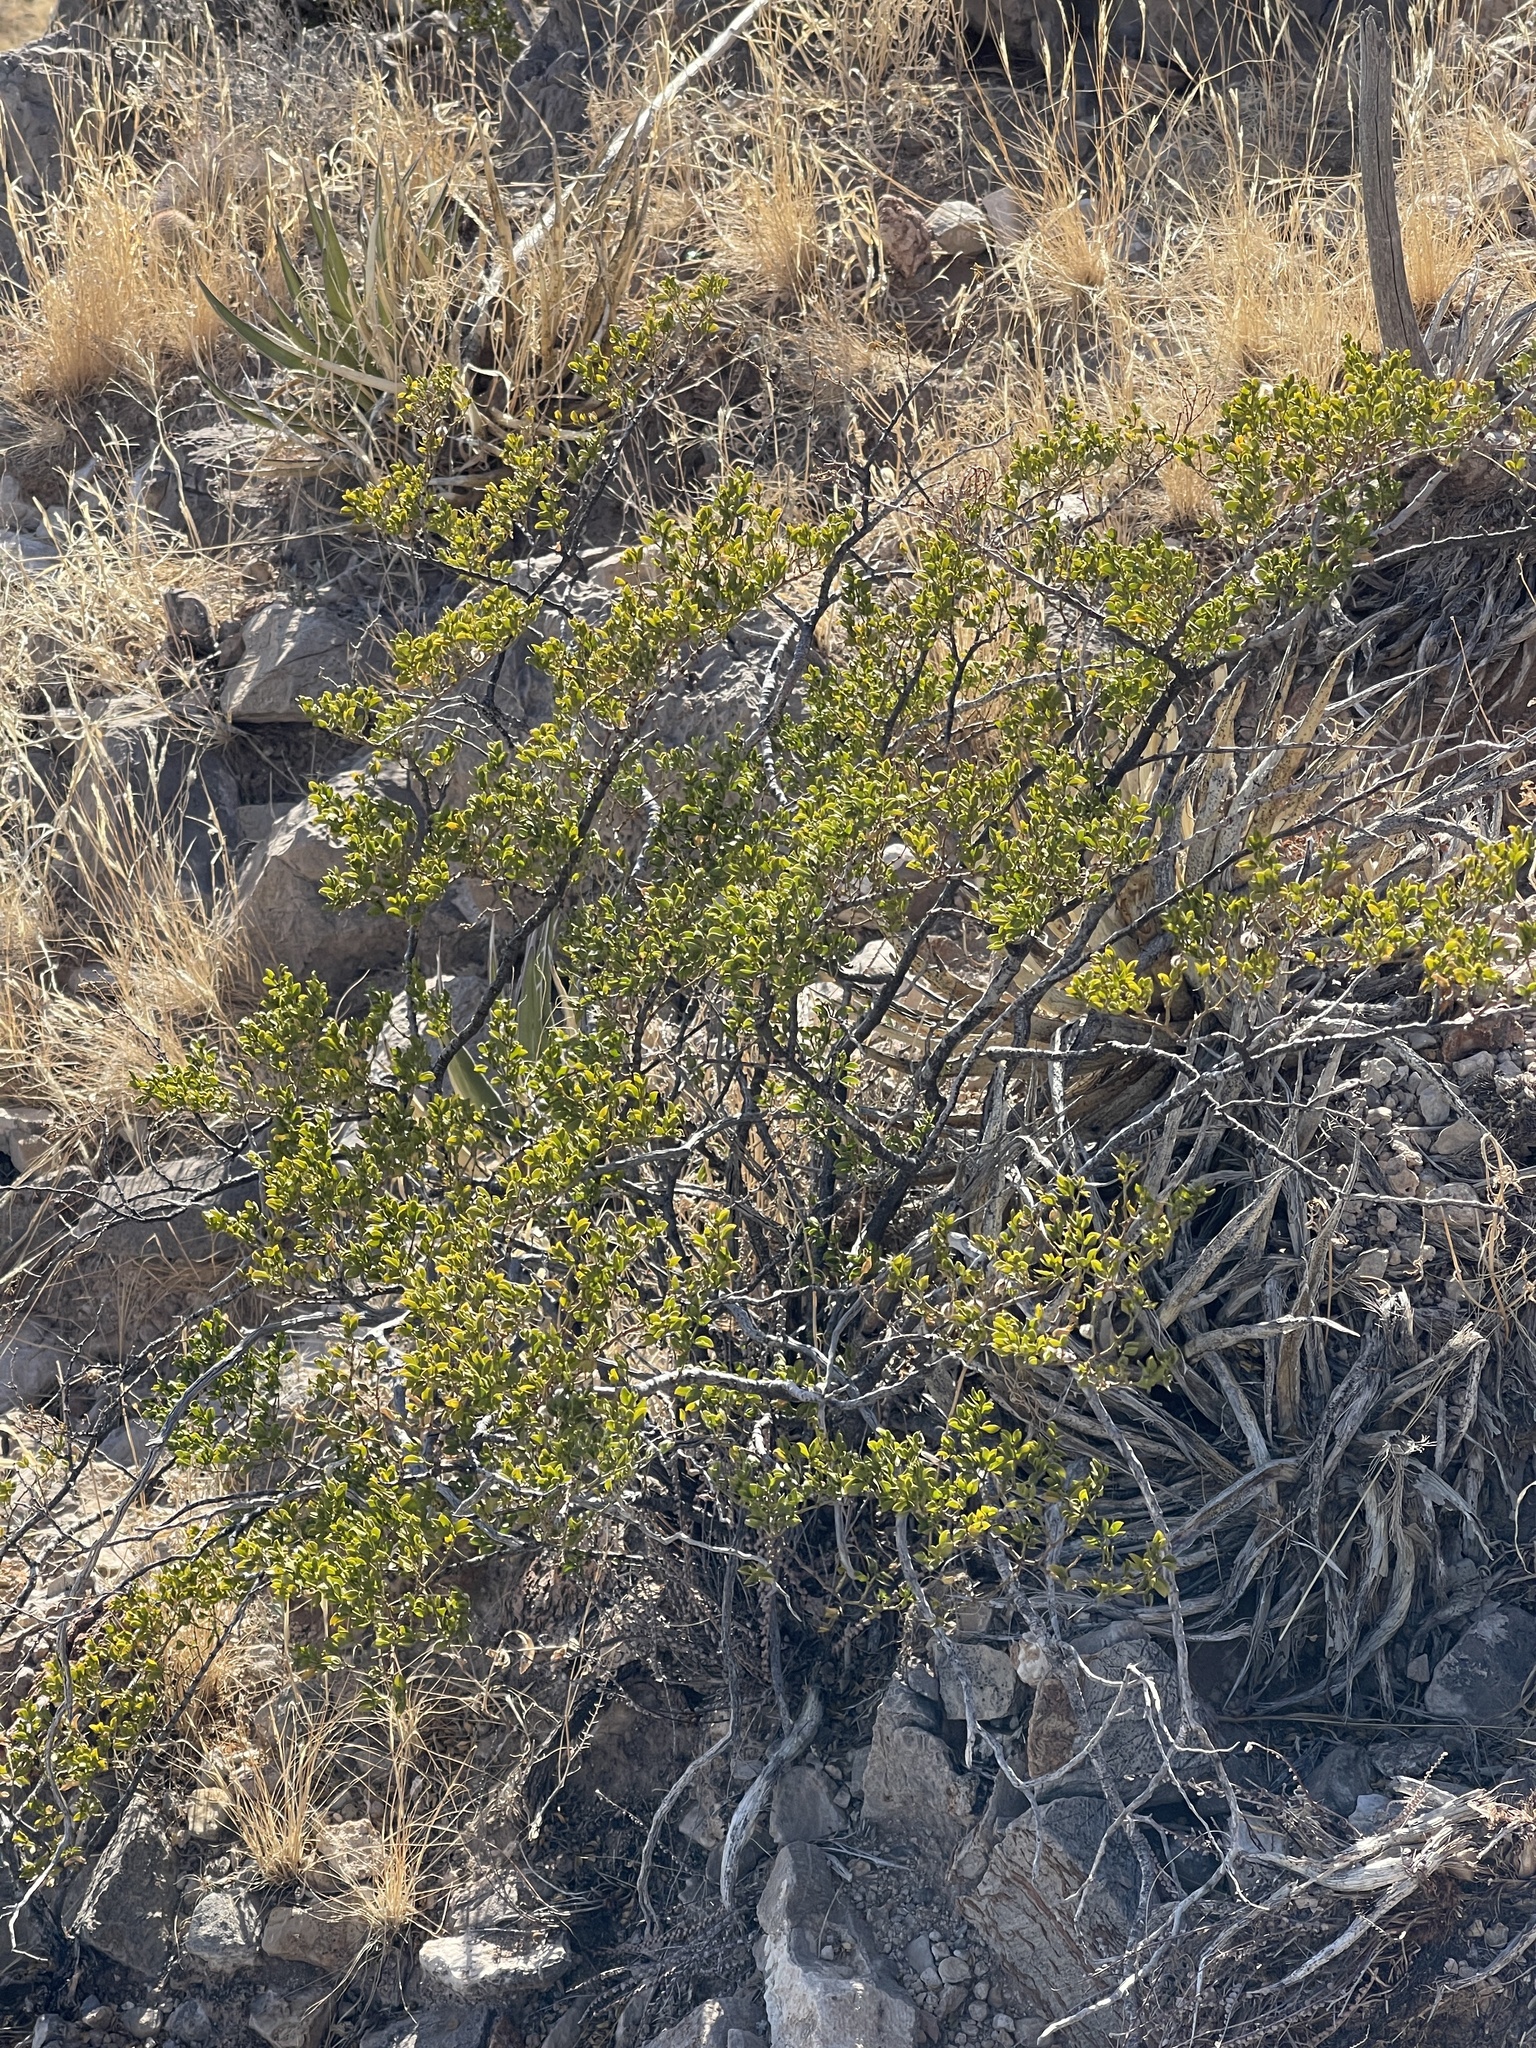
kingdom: Plantae
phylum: Tracheophyta
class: Magnoliopsida
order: Zygophyllales
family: Zygophyllaceae
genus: Larrea
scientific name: Larrea tridentata
